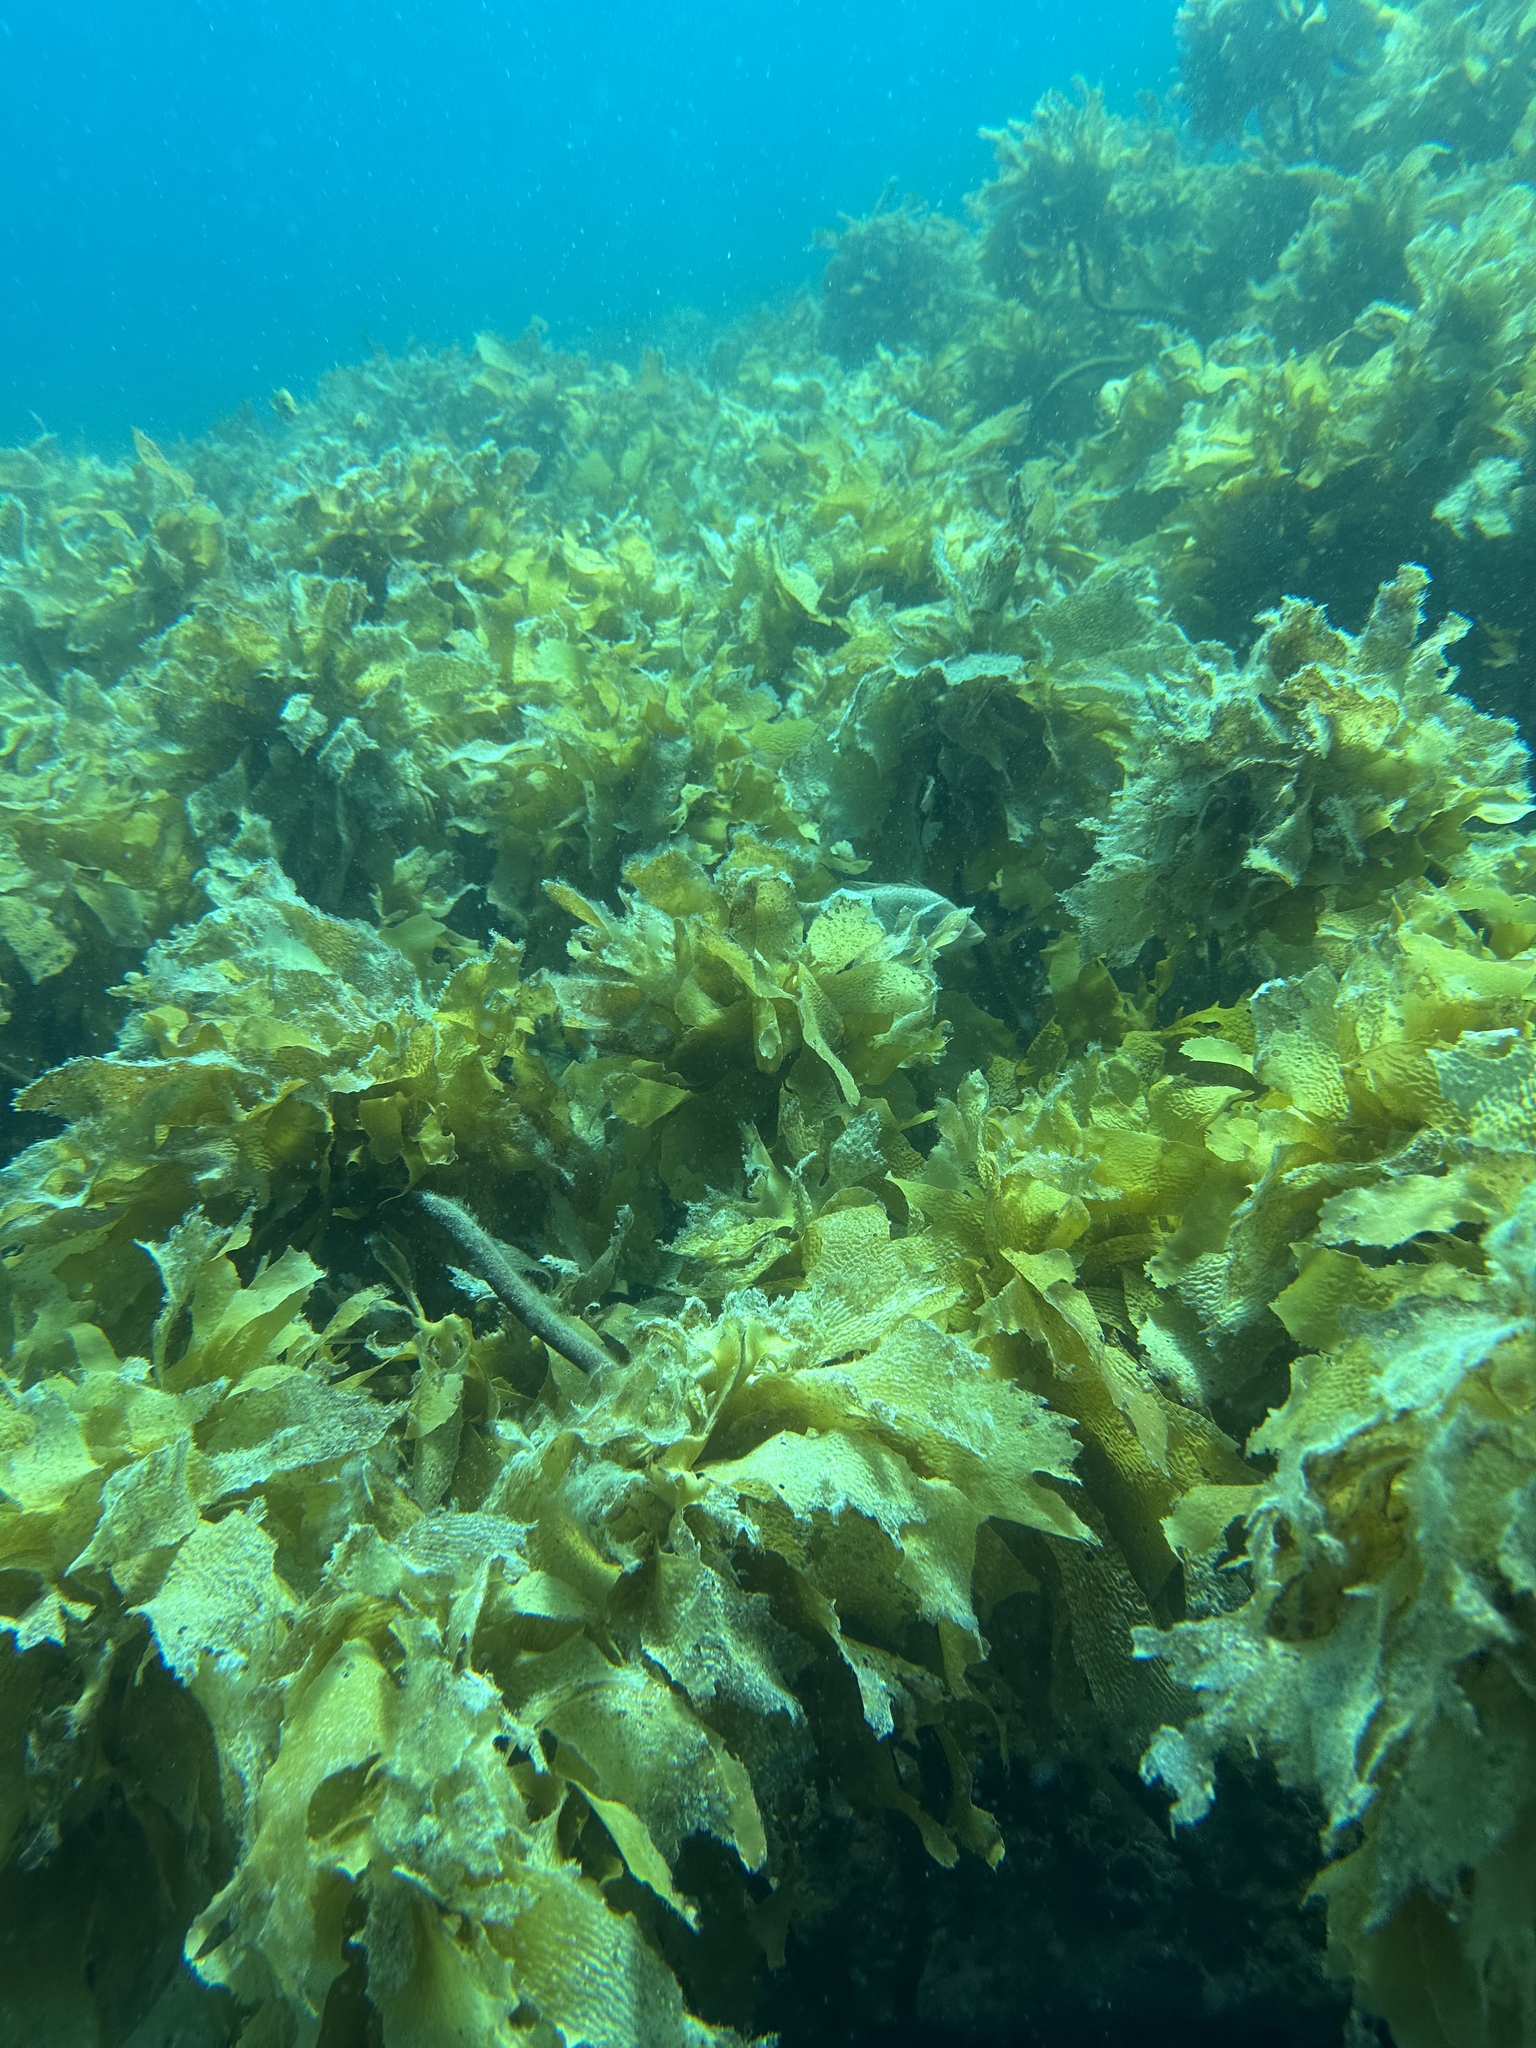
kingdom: Chromista
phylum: Ochrophyta
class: Phaeophyceae
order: Laminariales
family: Lessoniaceae
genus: Ecklonia
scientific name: Ecklonia radiata
